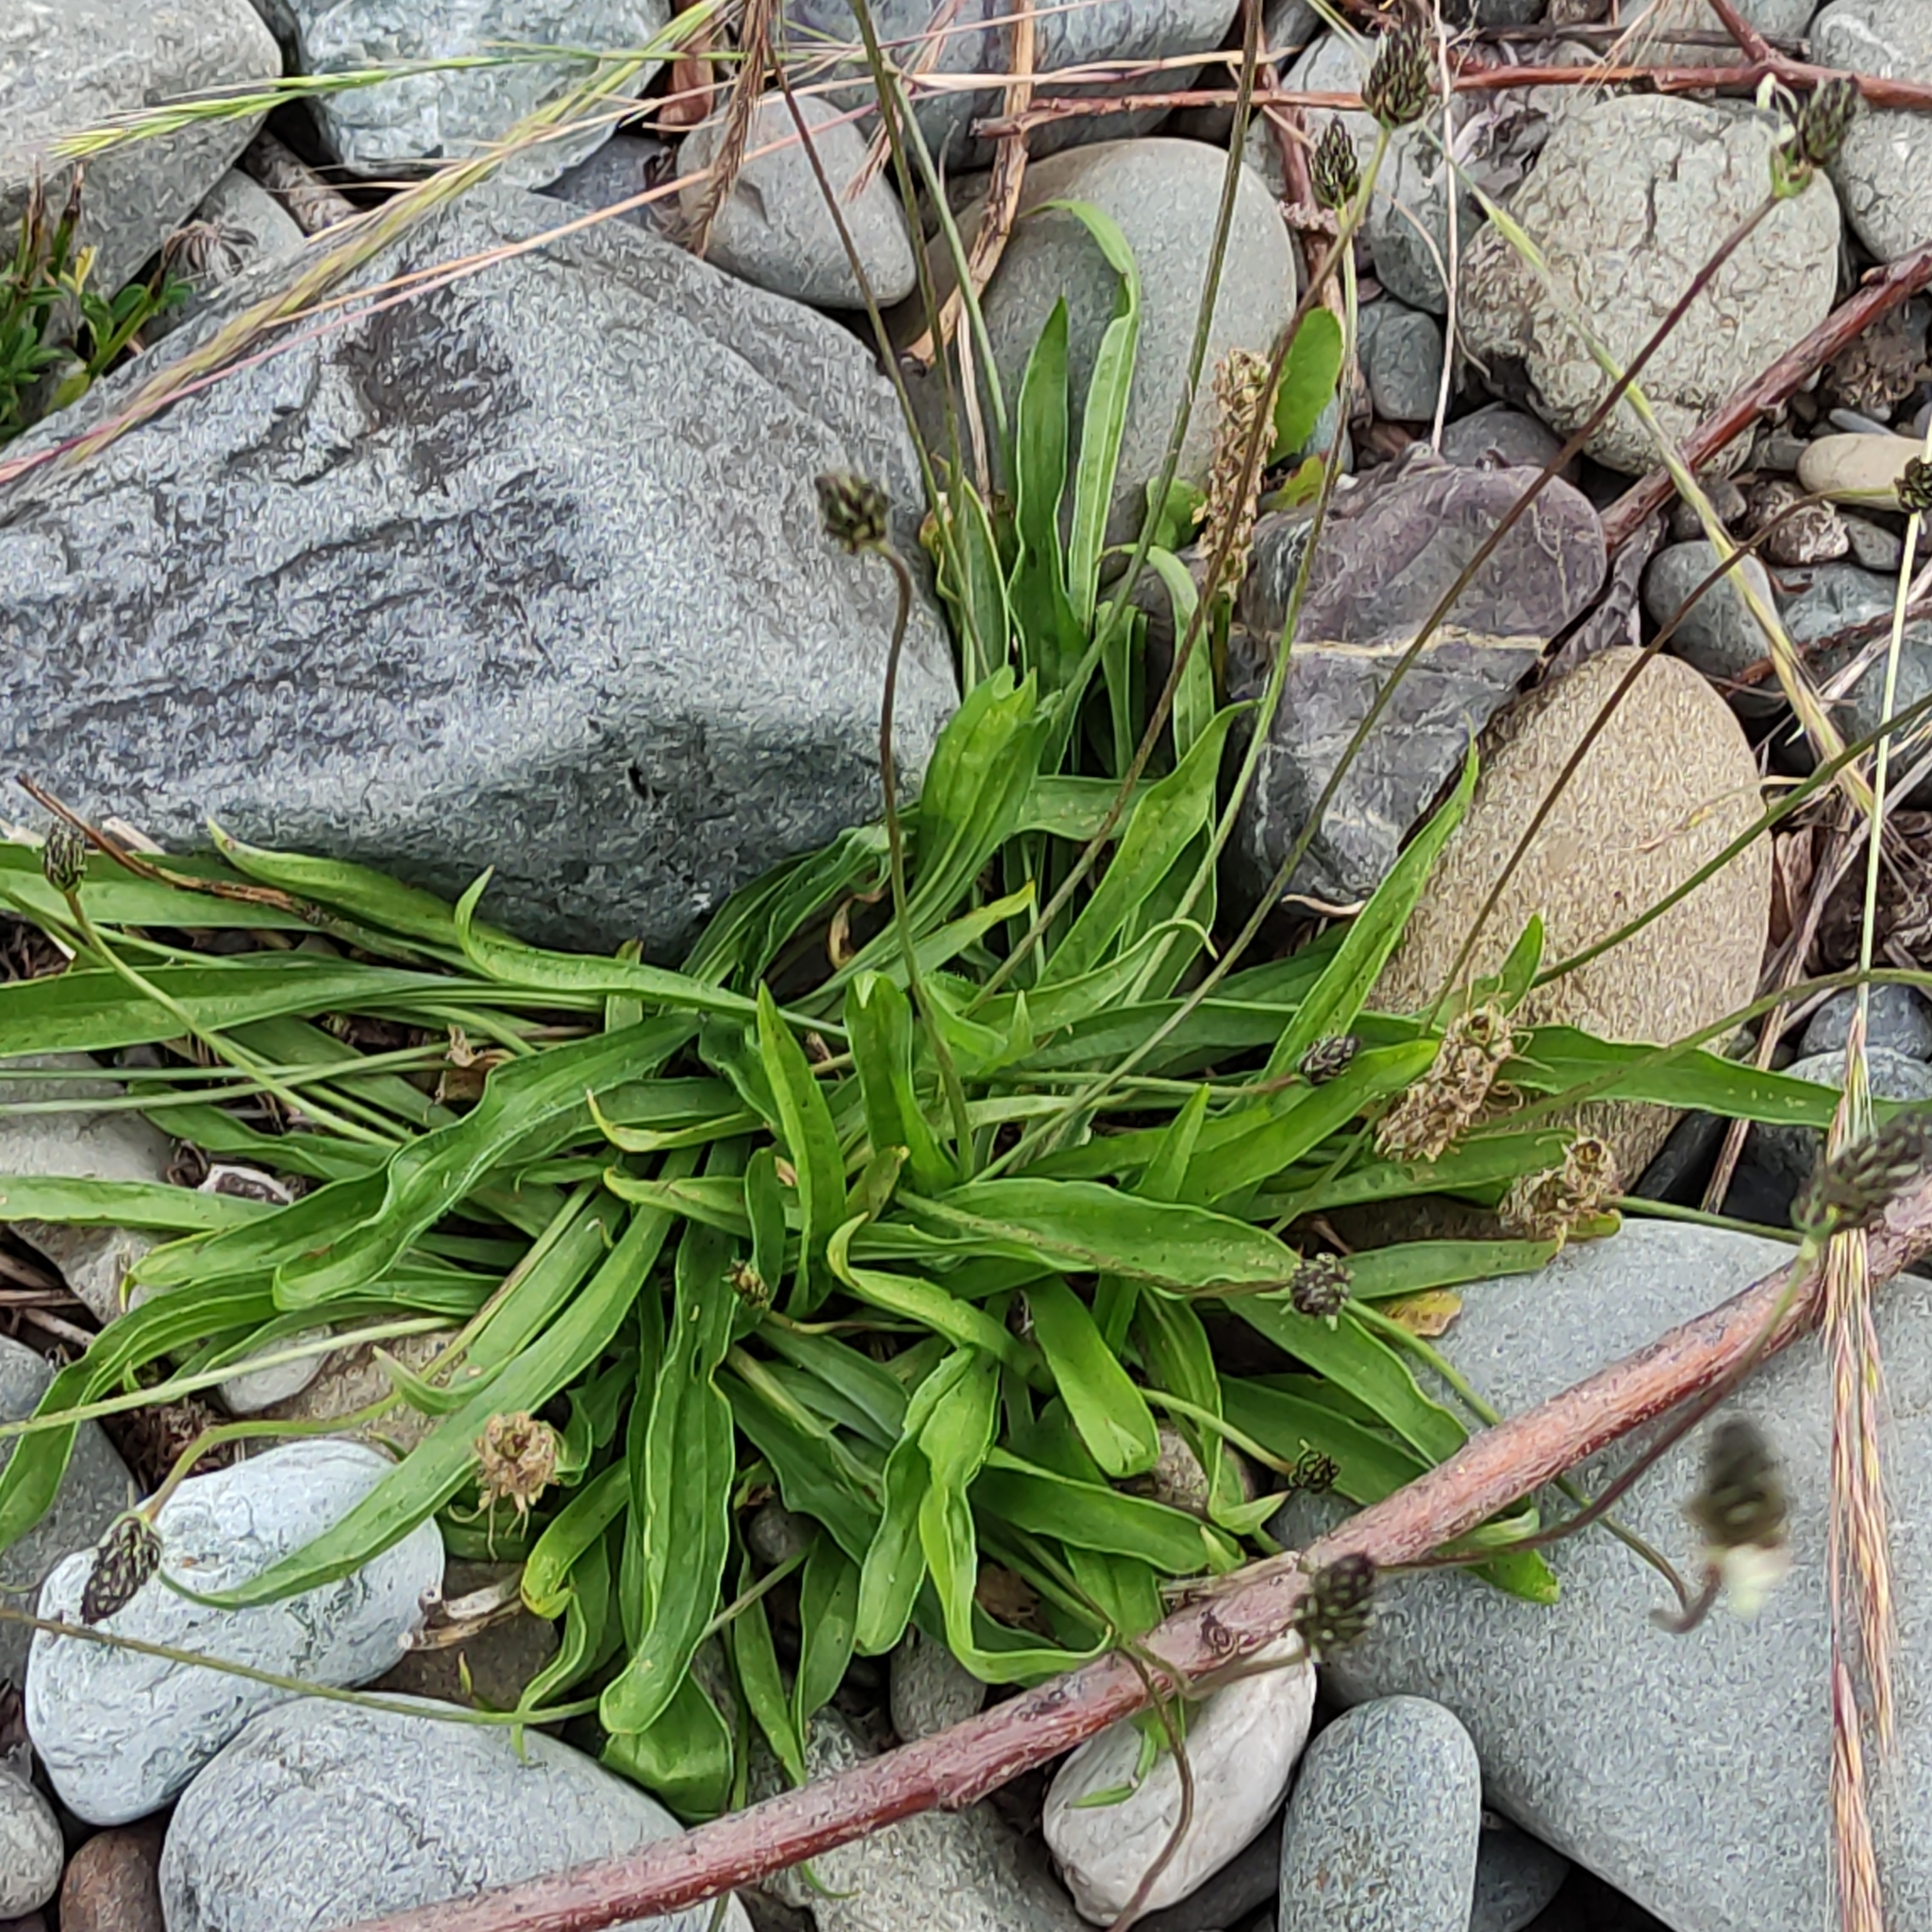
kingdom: Plantae
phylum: Tracheophyta
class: Magnoliopsida
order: Lamiales
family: Plantaginaceae
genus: Plantago
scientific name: Plantago lanceolata
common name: Ribwort plantain
